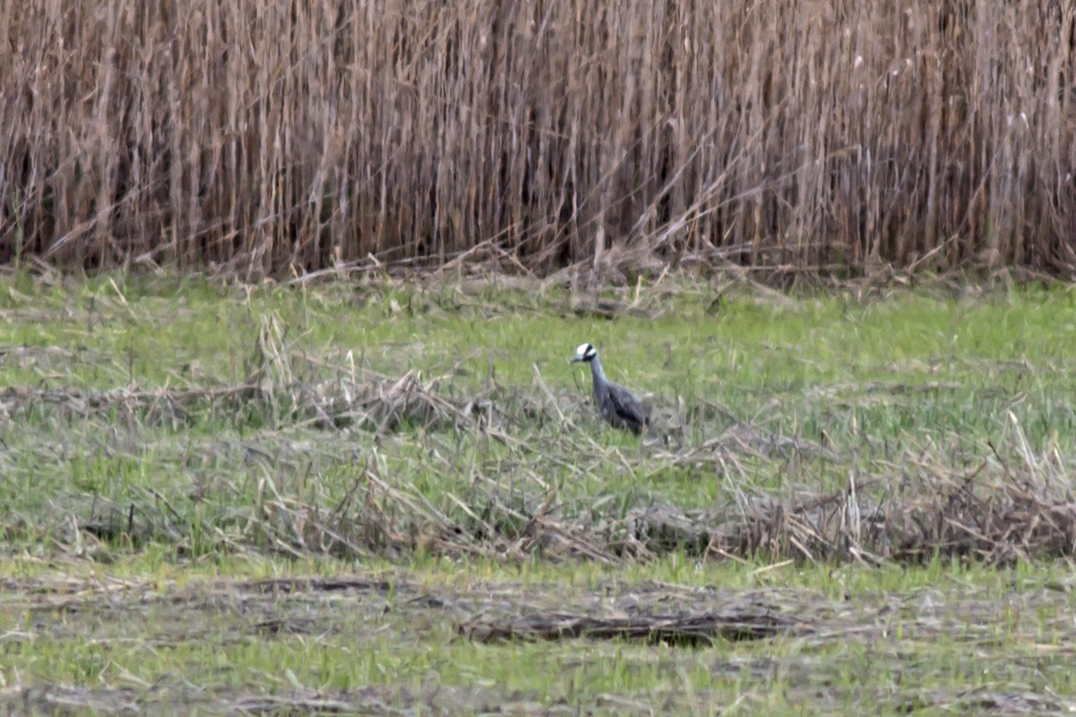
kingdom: Animalia
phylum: Chordata
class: Aves
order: Pelecaniformes
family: Ardeidae
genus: Nyctanassa
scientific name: Nyctanassa violacea
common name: Yellow-crowned night heron
